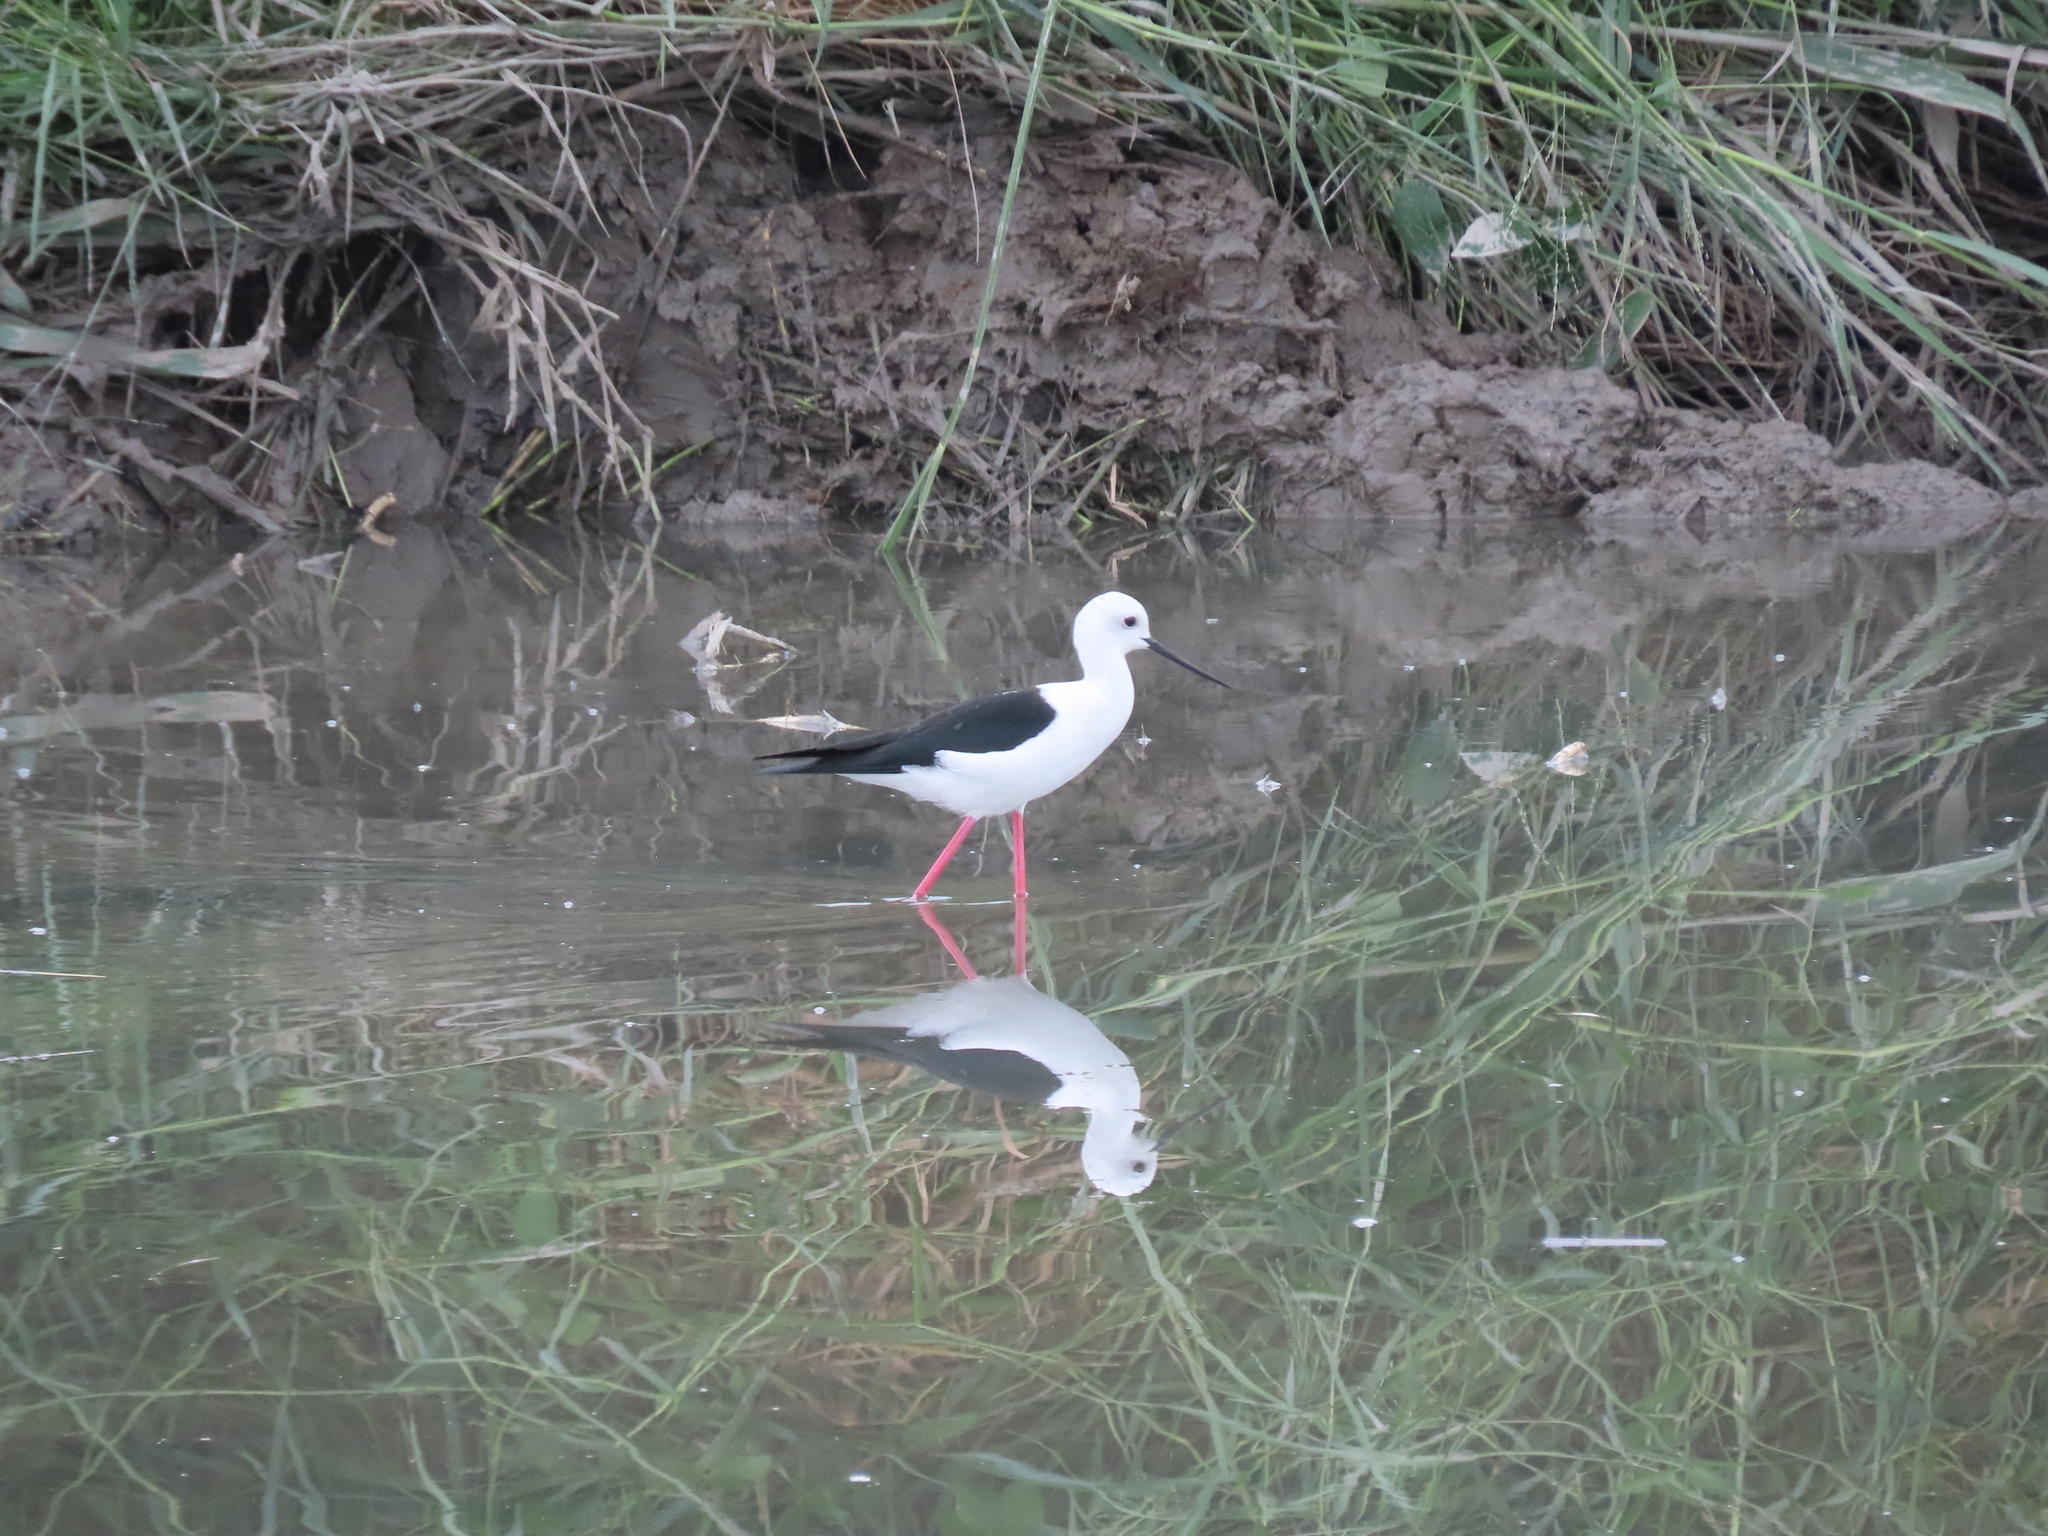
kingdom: Animalia
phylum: Chordata
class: Aves
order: Charadriiformes
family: Recurvirostridae
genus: Himantopus
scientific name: Himantopus himantopus
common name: Black-winged stilt
